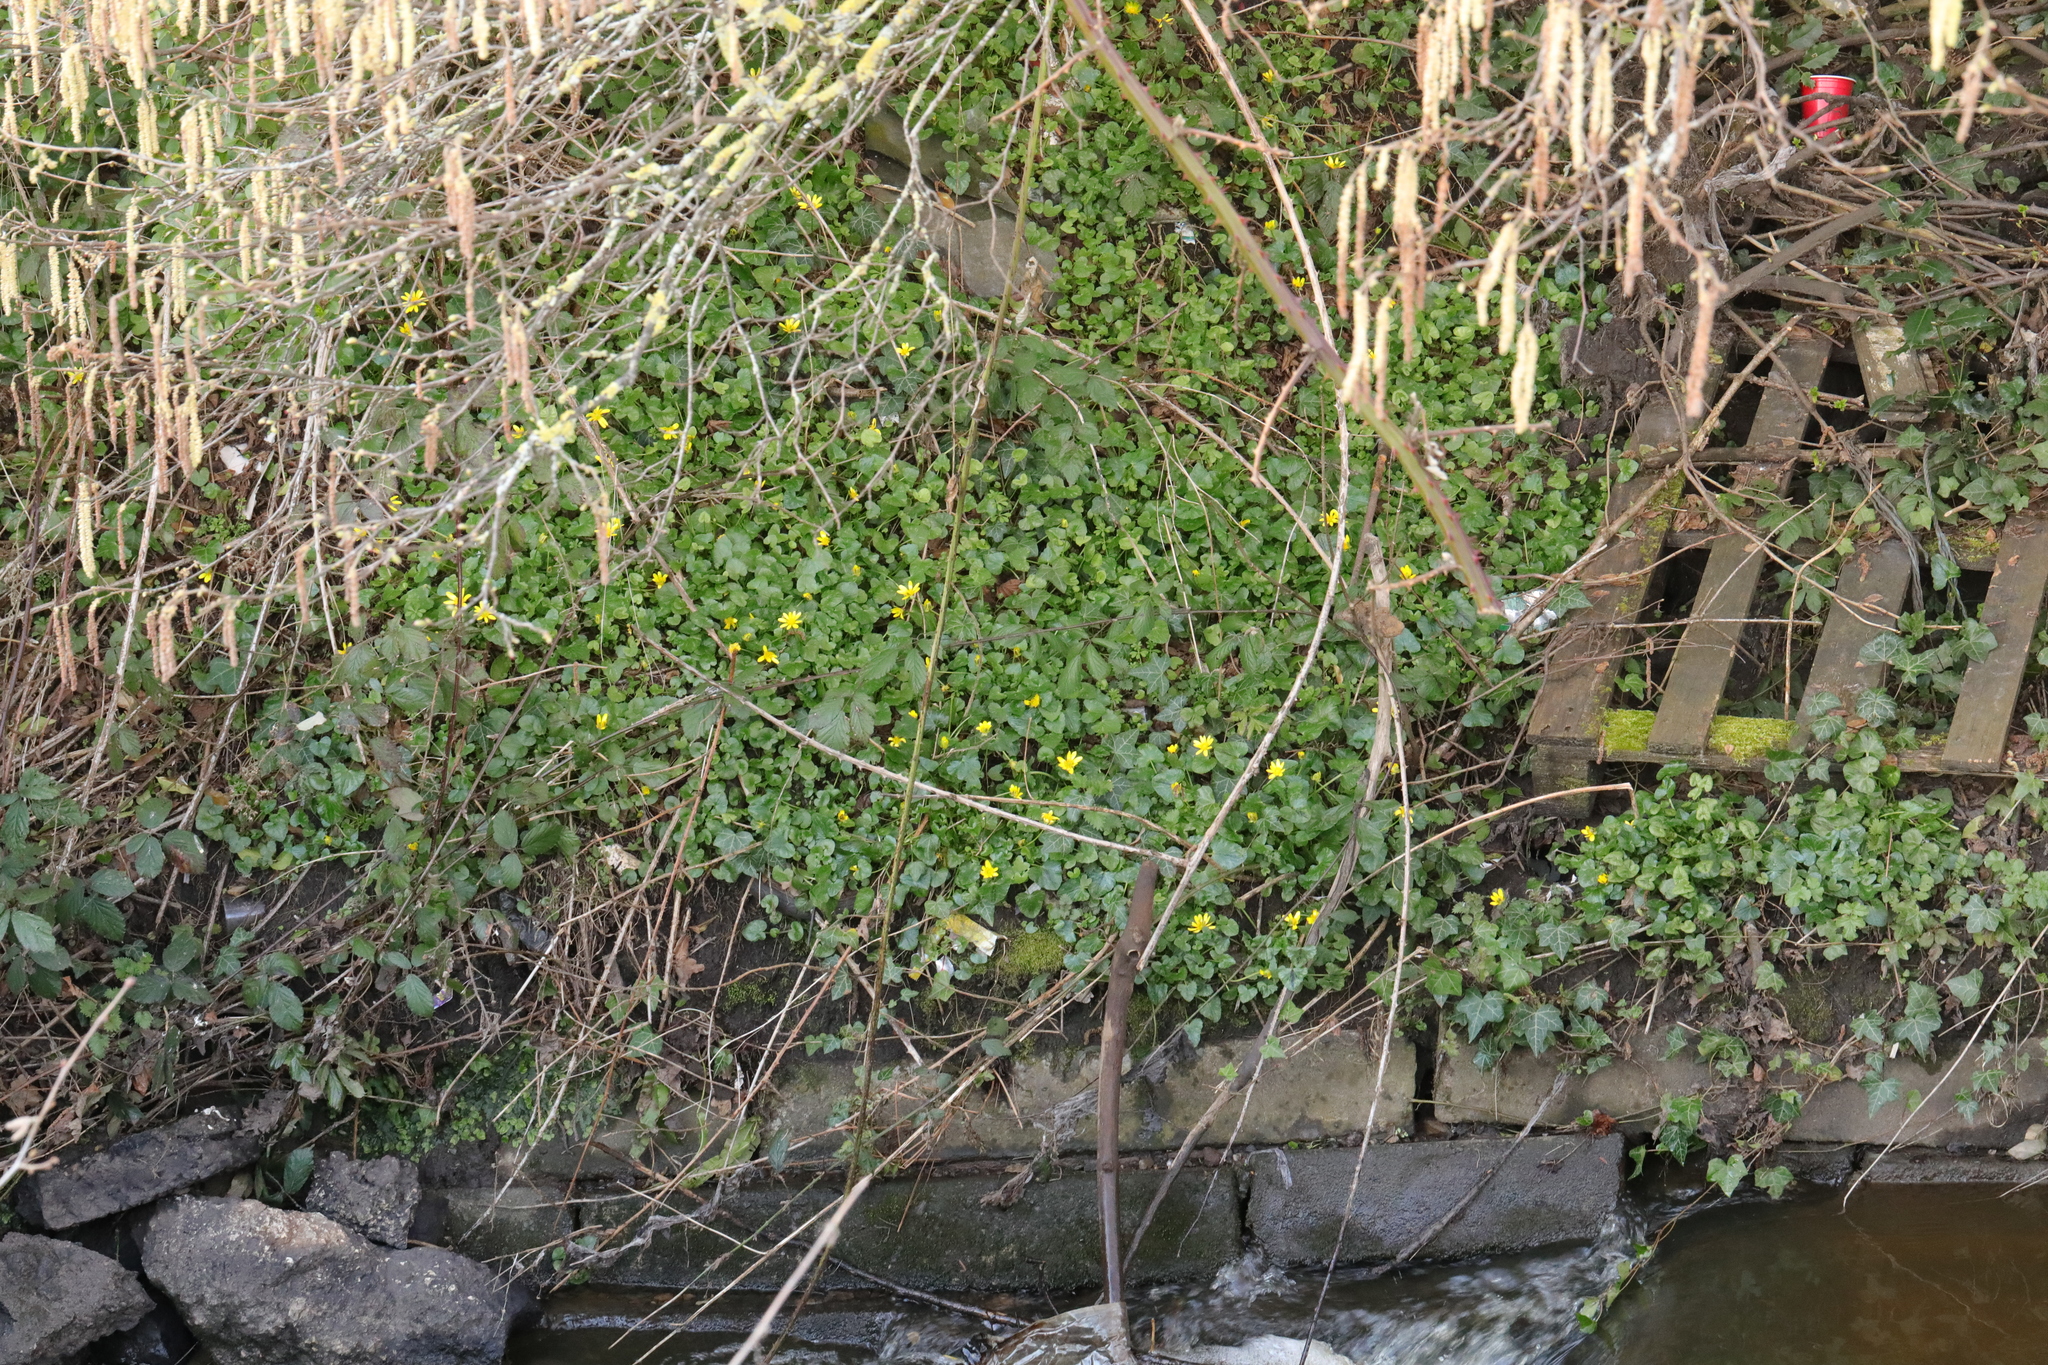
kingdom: Plantae
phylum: Tracheophyta
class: Magnoliopsida
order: Ranunculales
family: Ranunculaceae
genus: Ficaria
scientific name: Ficaria verna
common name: Lesser celandine
